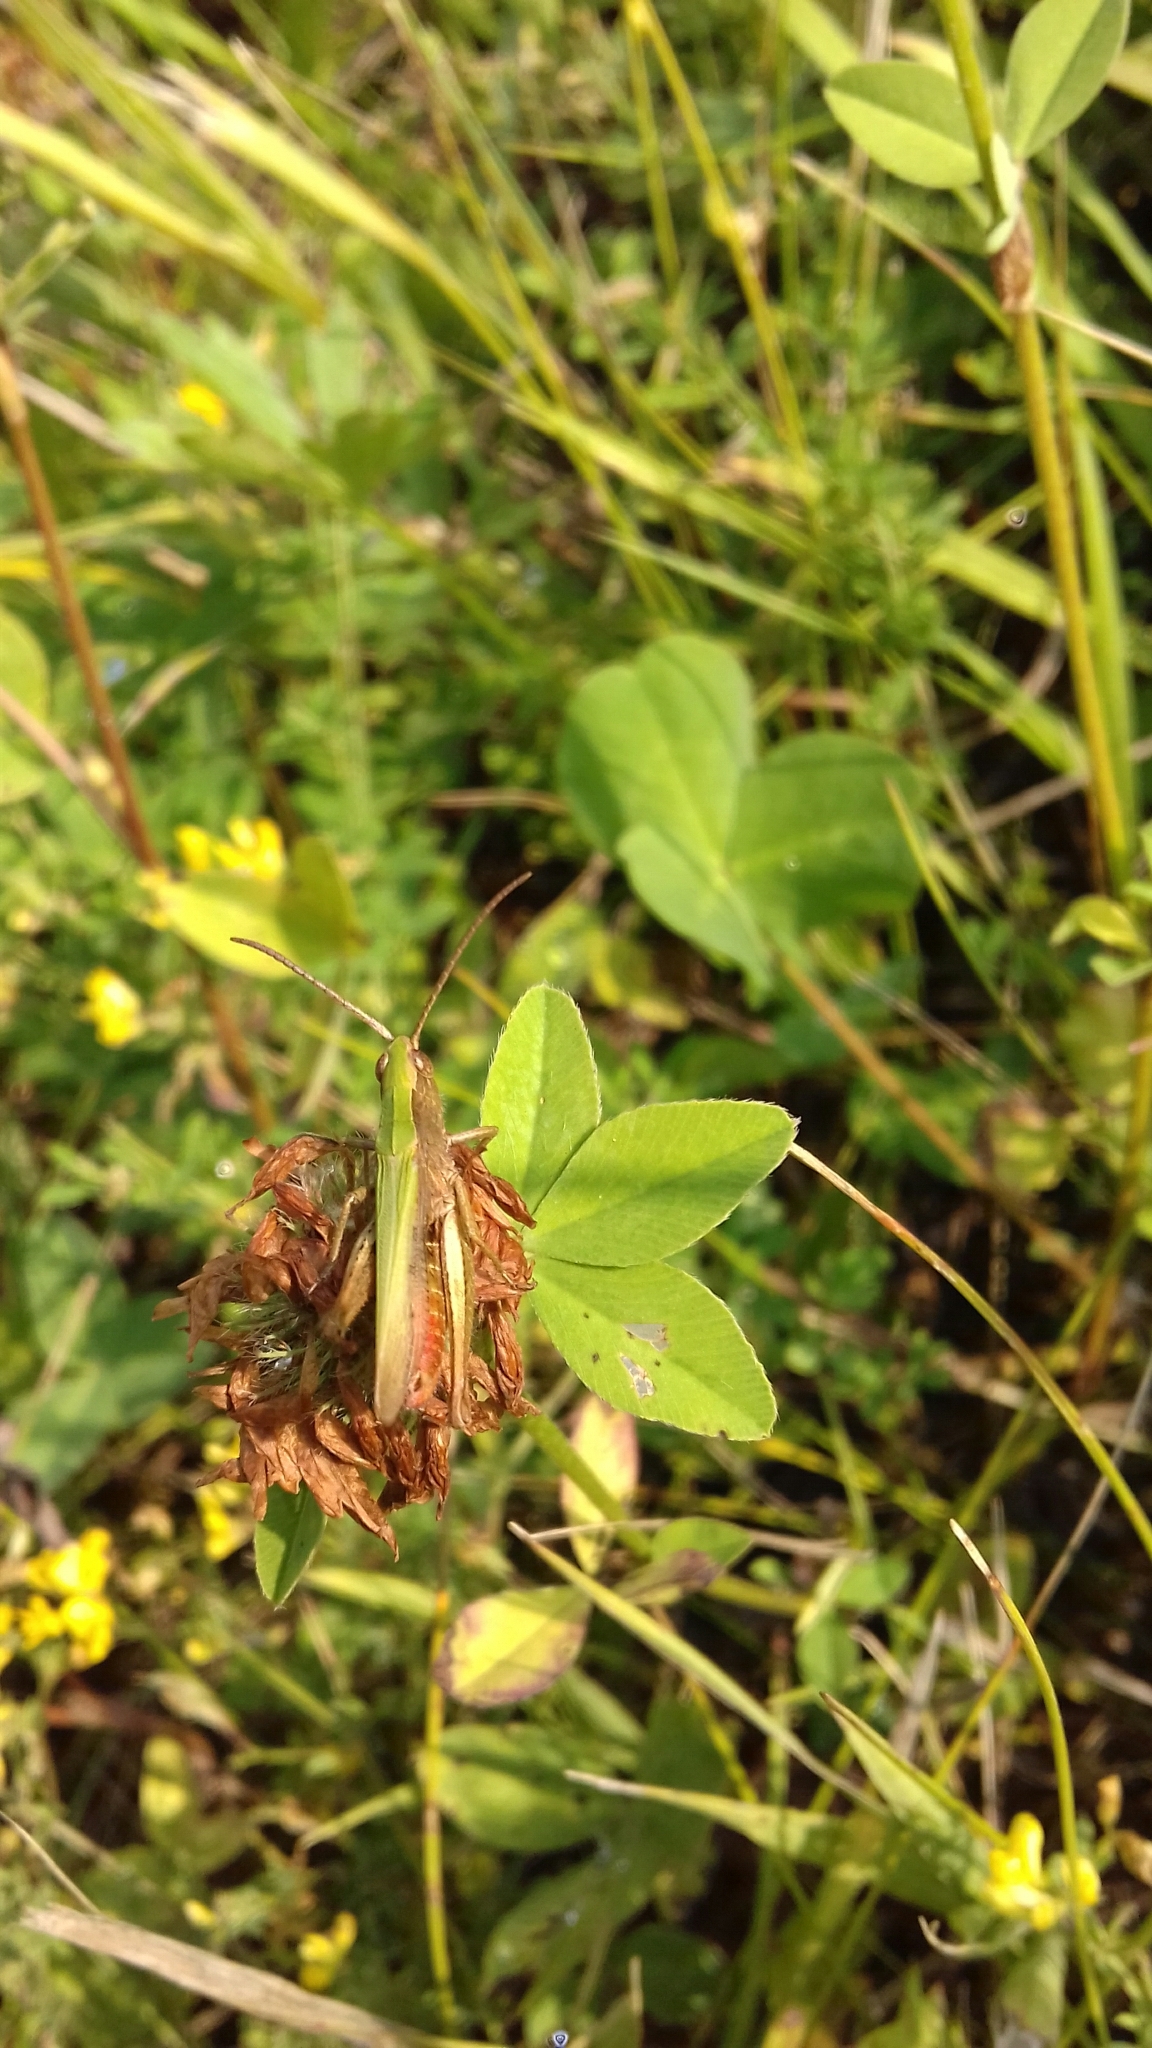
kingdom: Animalia
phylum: Arthropoda
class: Insecta
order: Orthoptera
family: Acrididae
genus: Chorthippus
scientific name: Chorthippus dorsatus
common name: Steppe grasshopper
